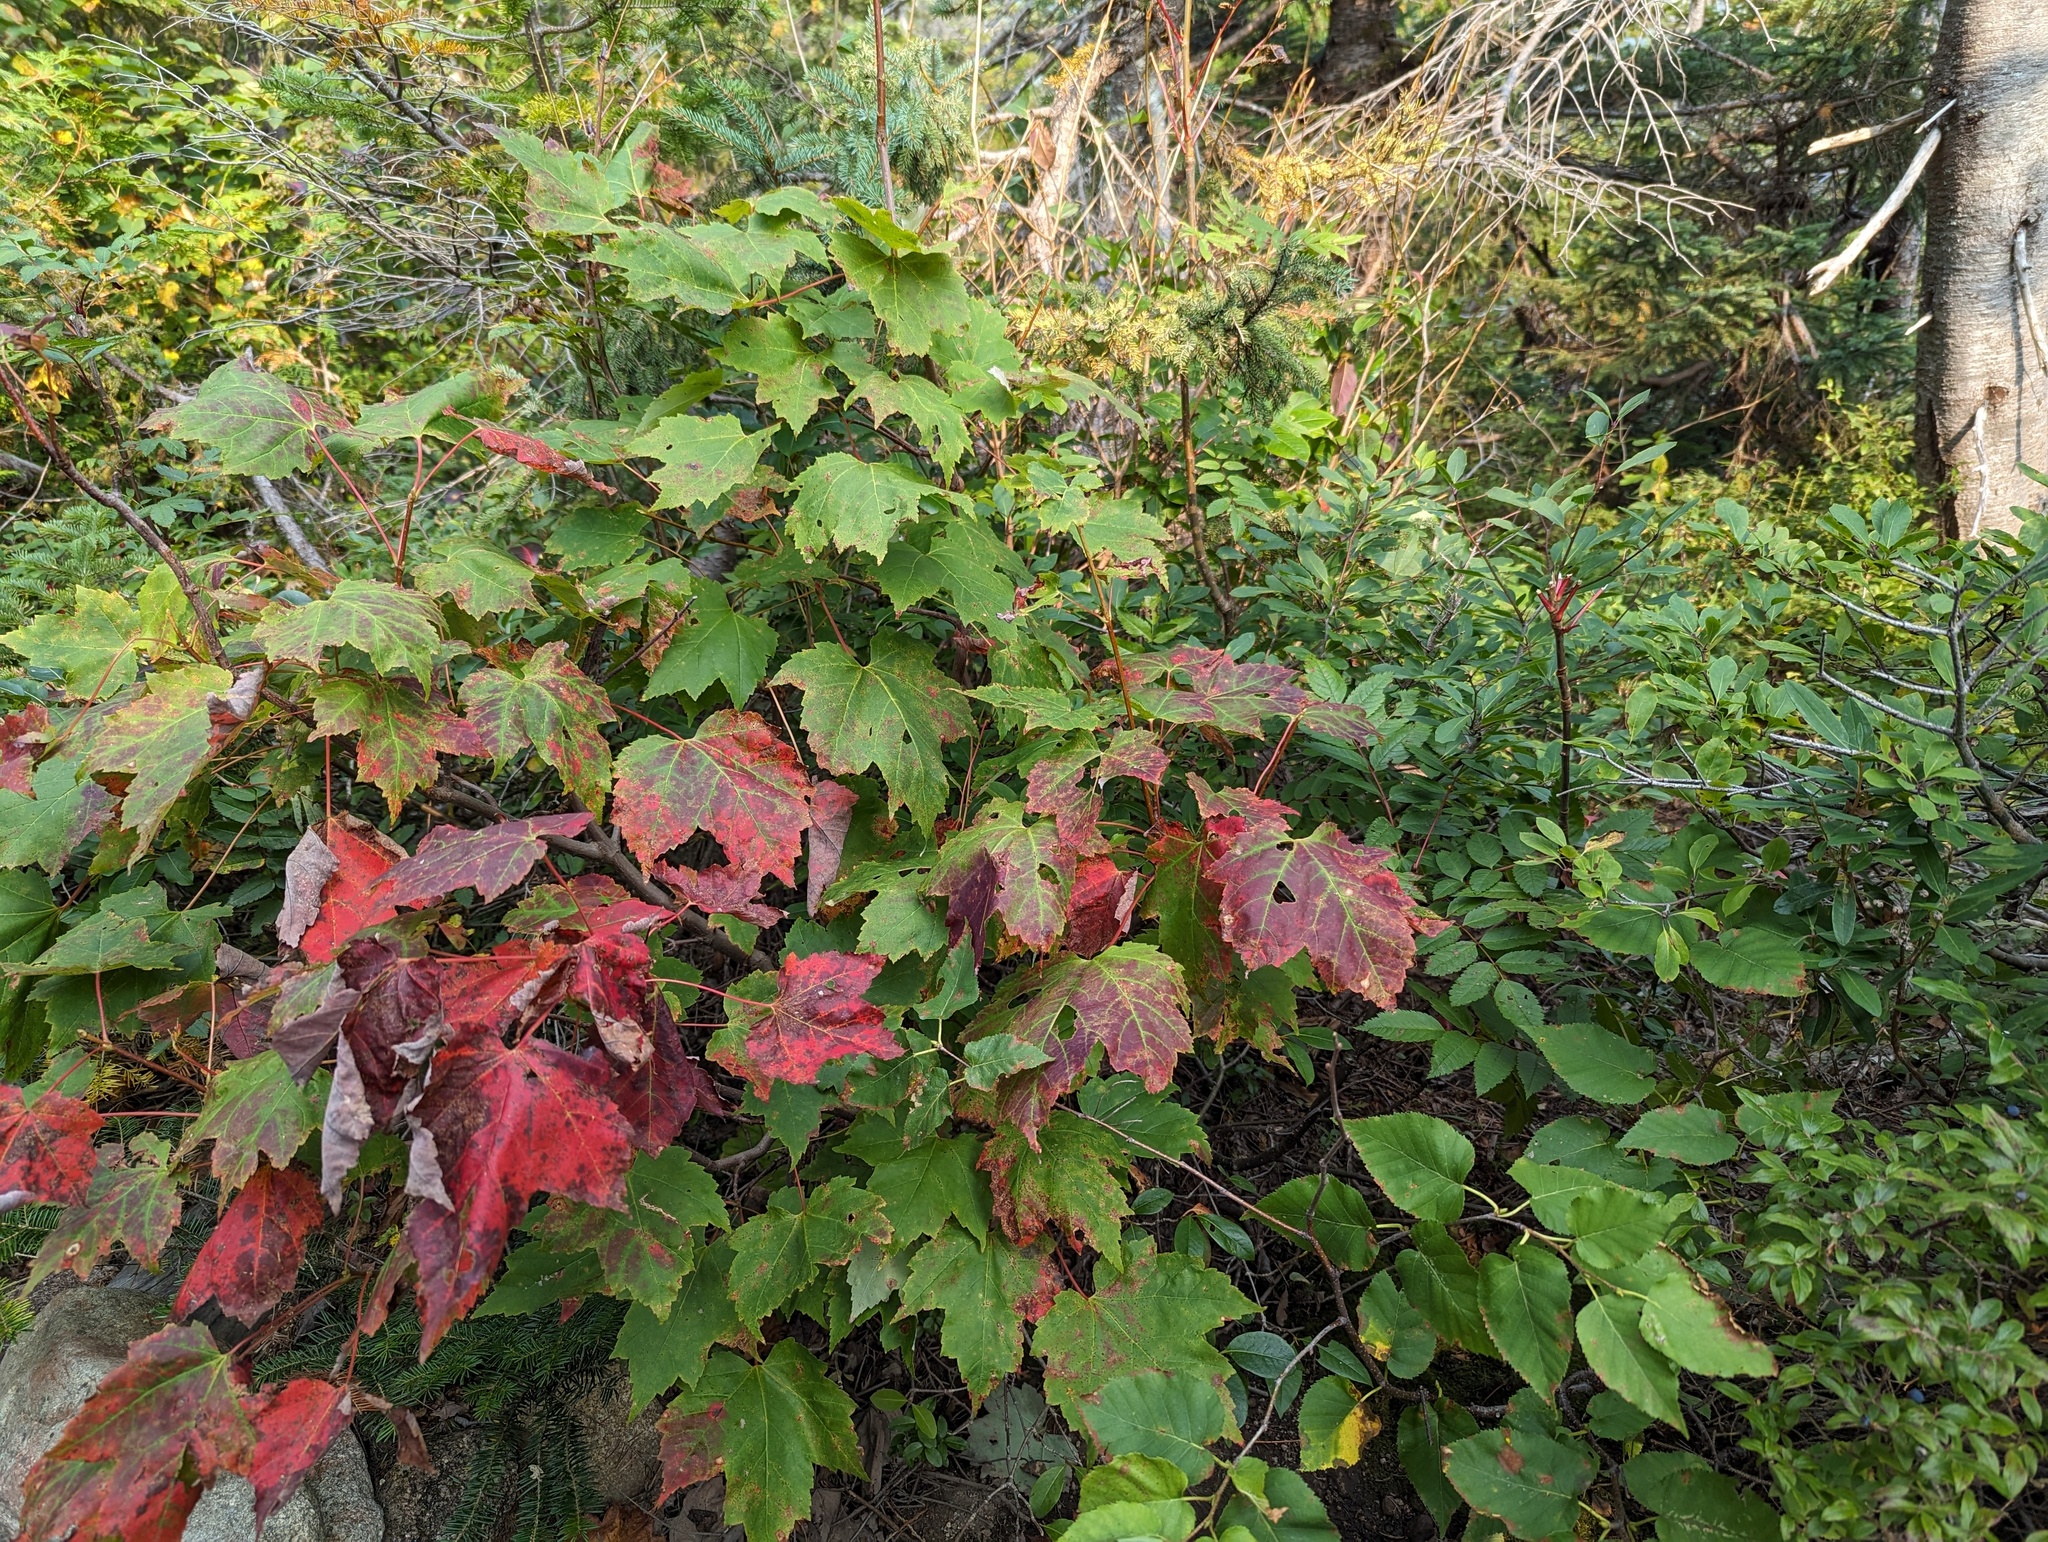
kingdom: Plantae
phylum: Tracheophyta
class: Magnoliopsida
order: Sapindales
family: Sapindaceae
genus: Acer
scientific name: Acer rubrum
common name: Red maple
